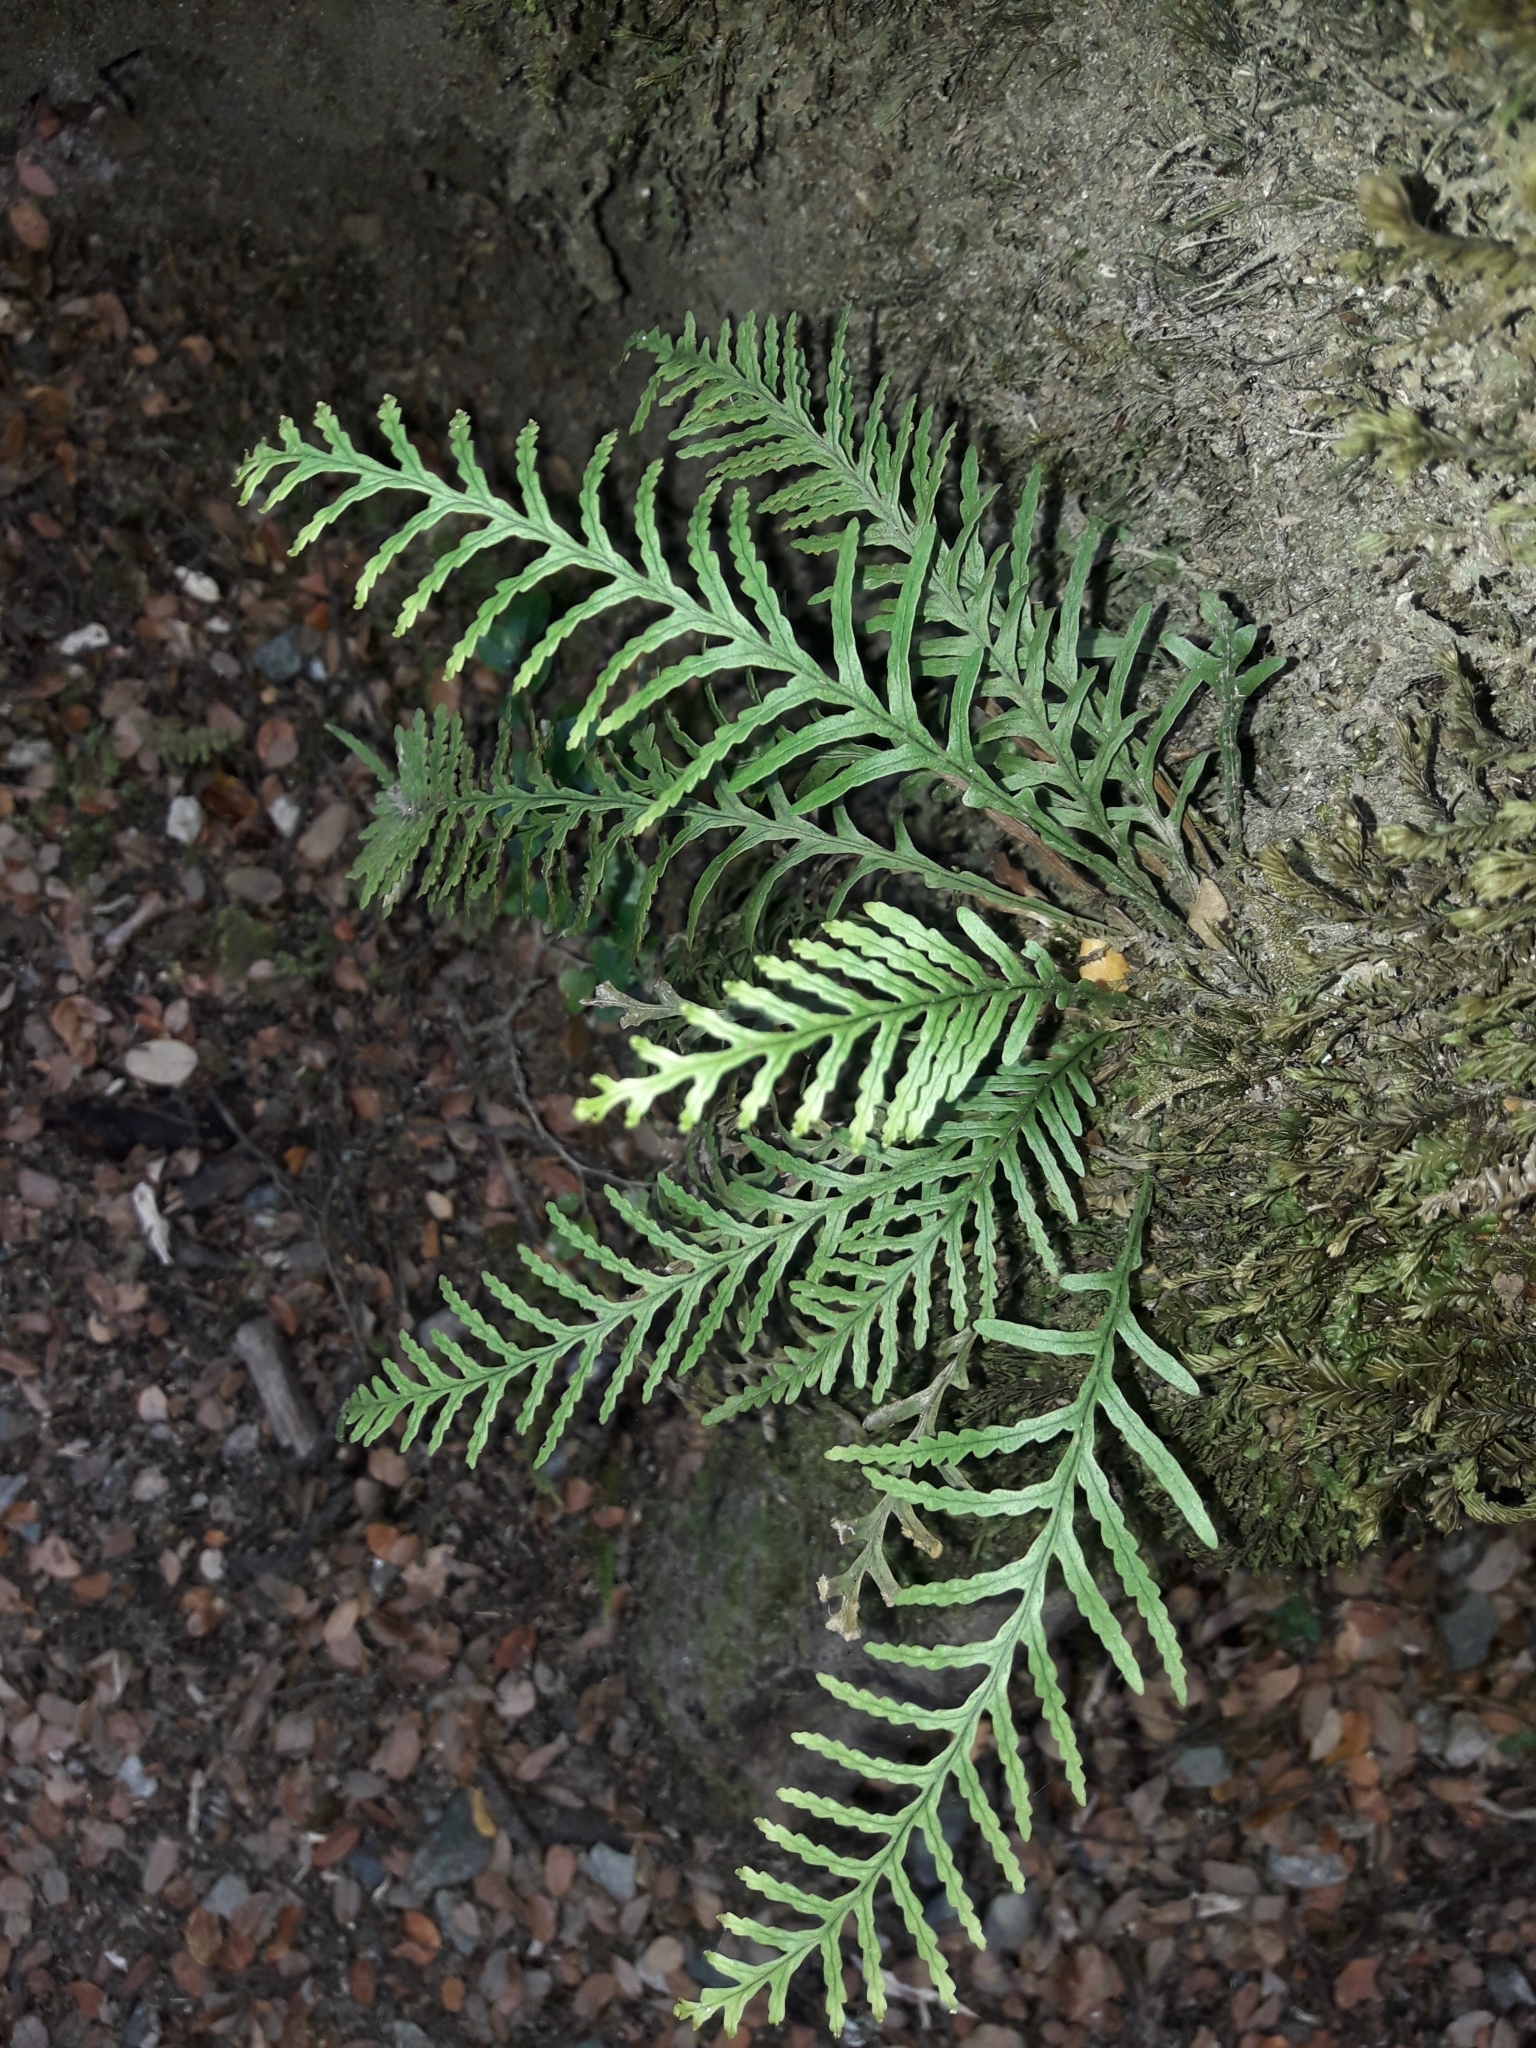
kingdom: Plantae
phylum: Tracheophyta
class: Polypodiopsida
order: Polypodiales
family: Polypodiaceae
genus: Notogrammitis
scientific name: Notogrammitis heterophylla
